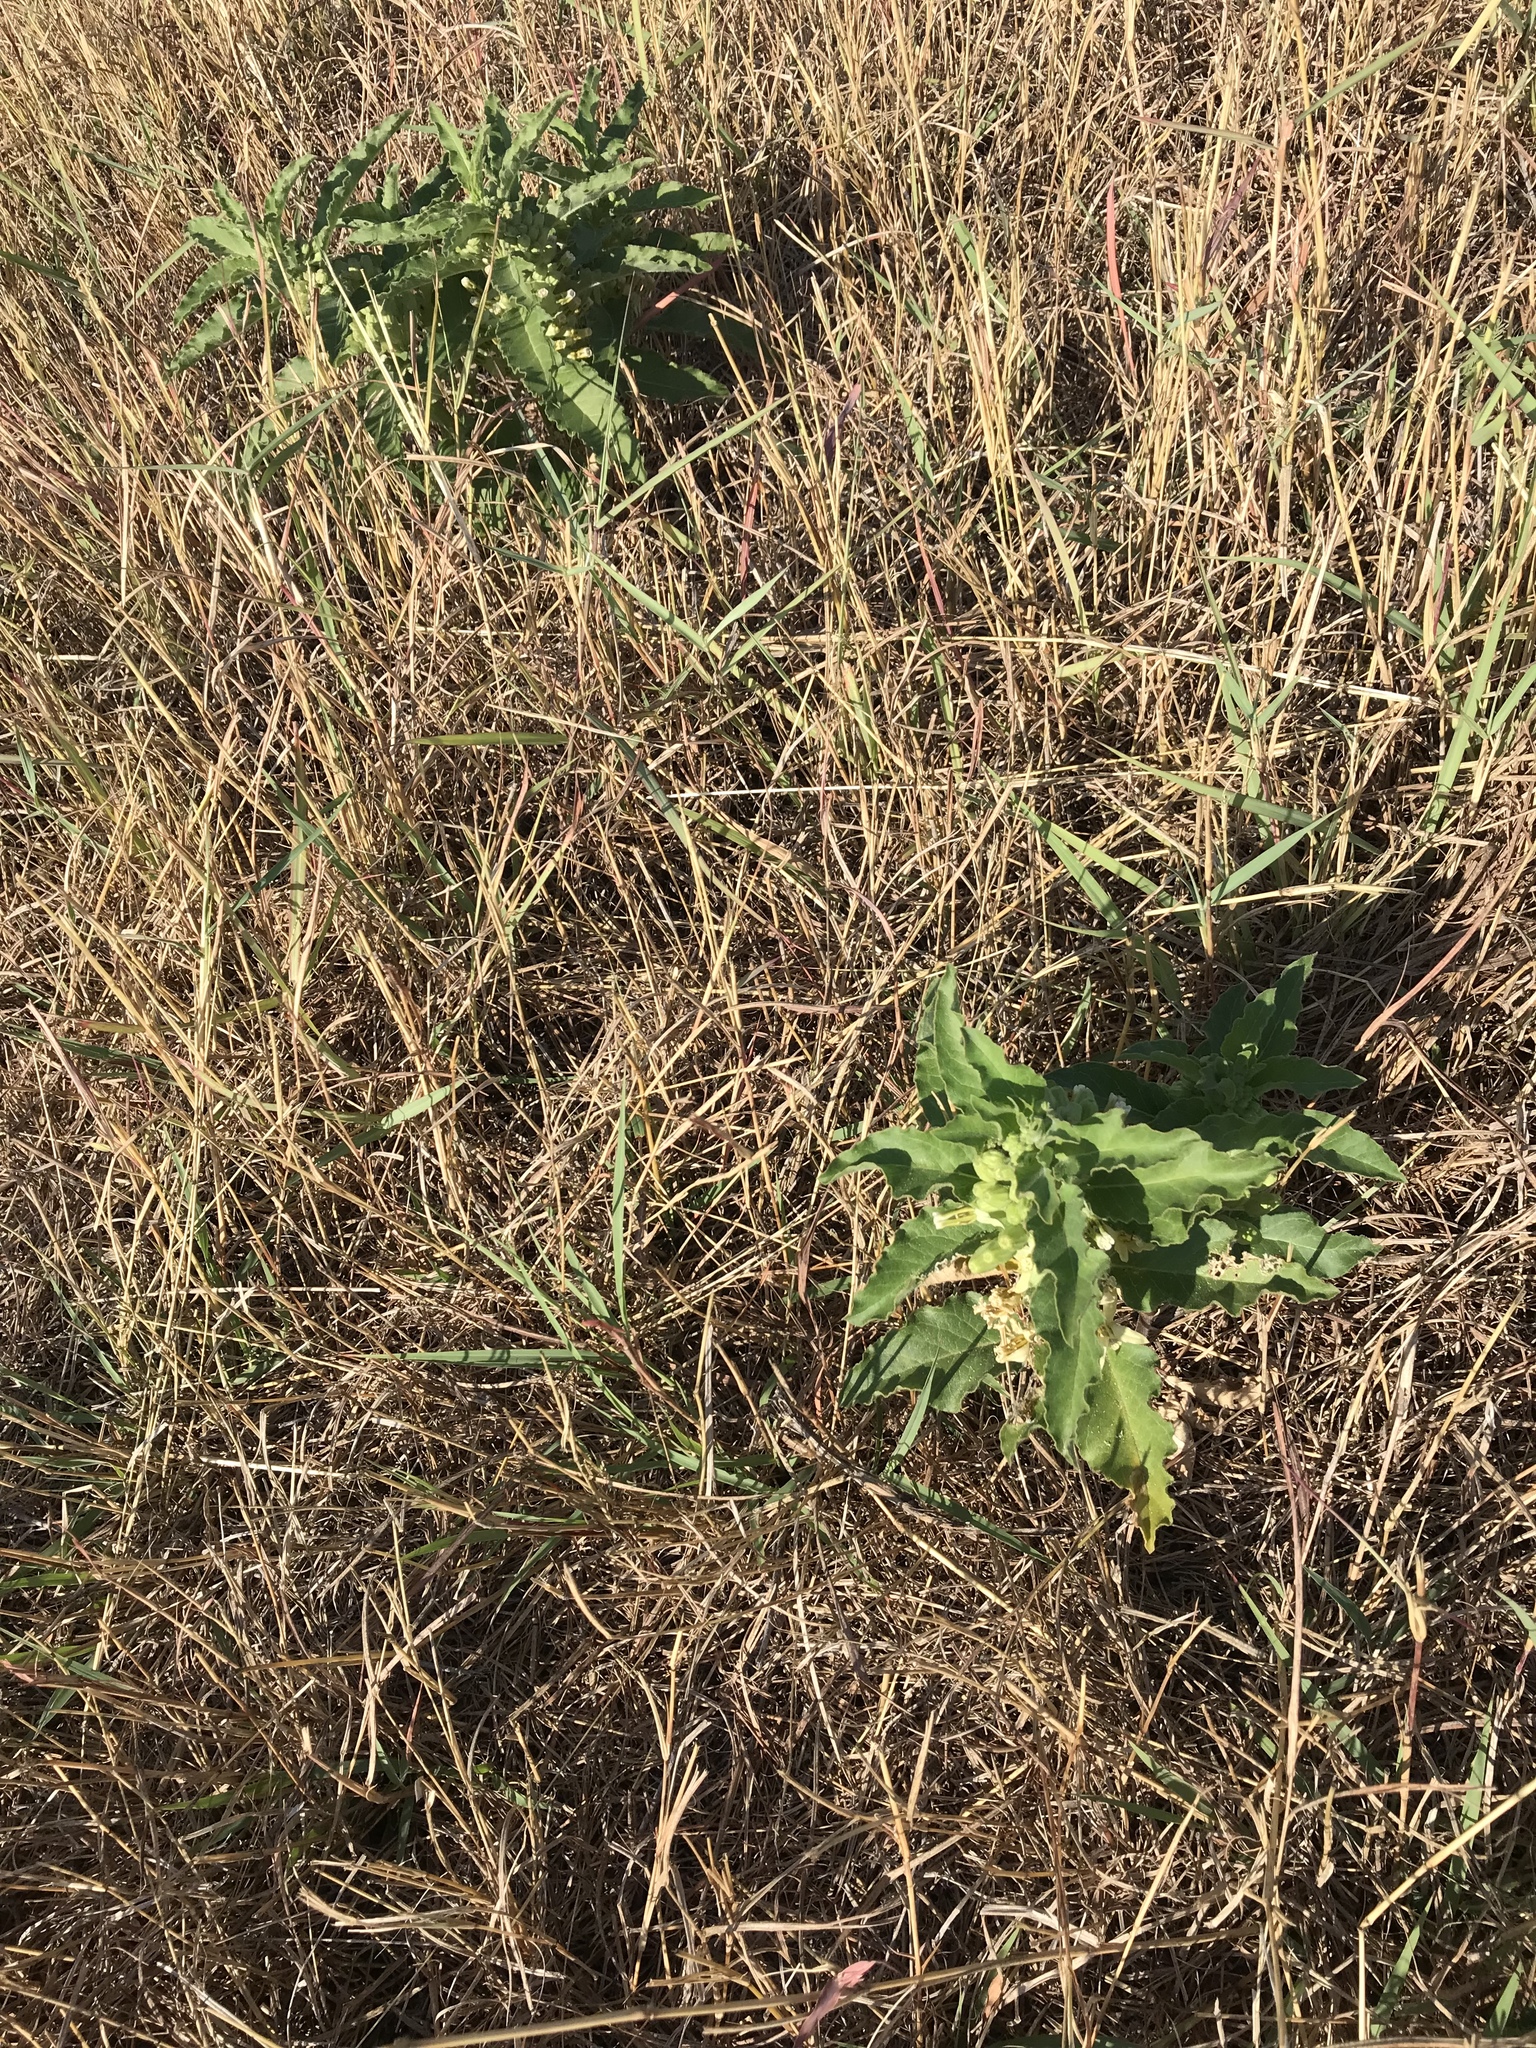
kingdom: Plantae
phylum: Tracheophyta
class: Magnoliopsida
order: Gentianales
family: Apocynaceae
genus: Asclepias
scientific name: Asclepias oenotheroides
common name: Zizotes milkweed
